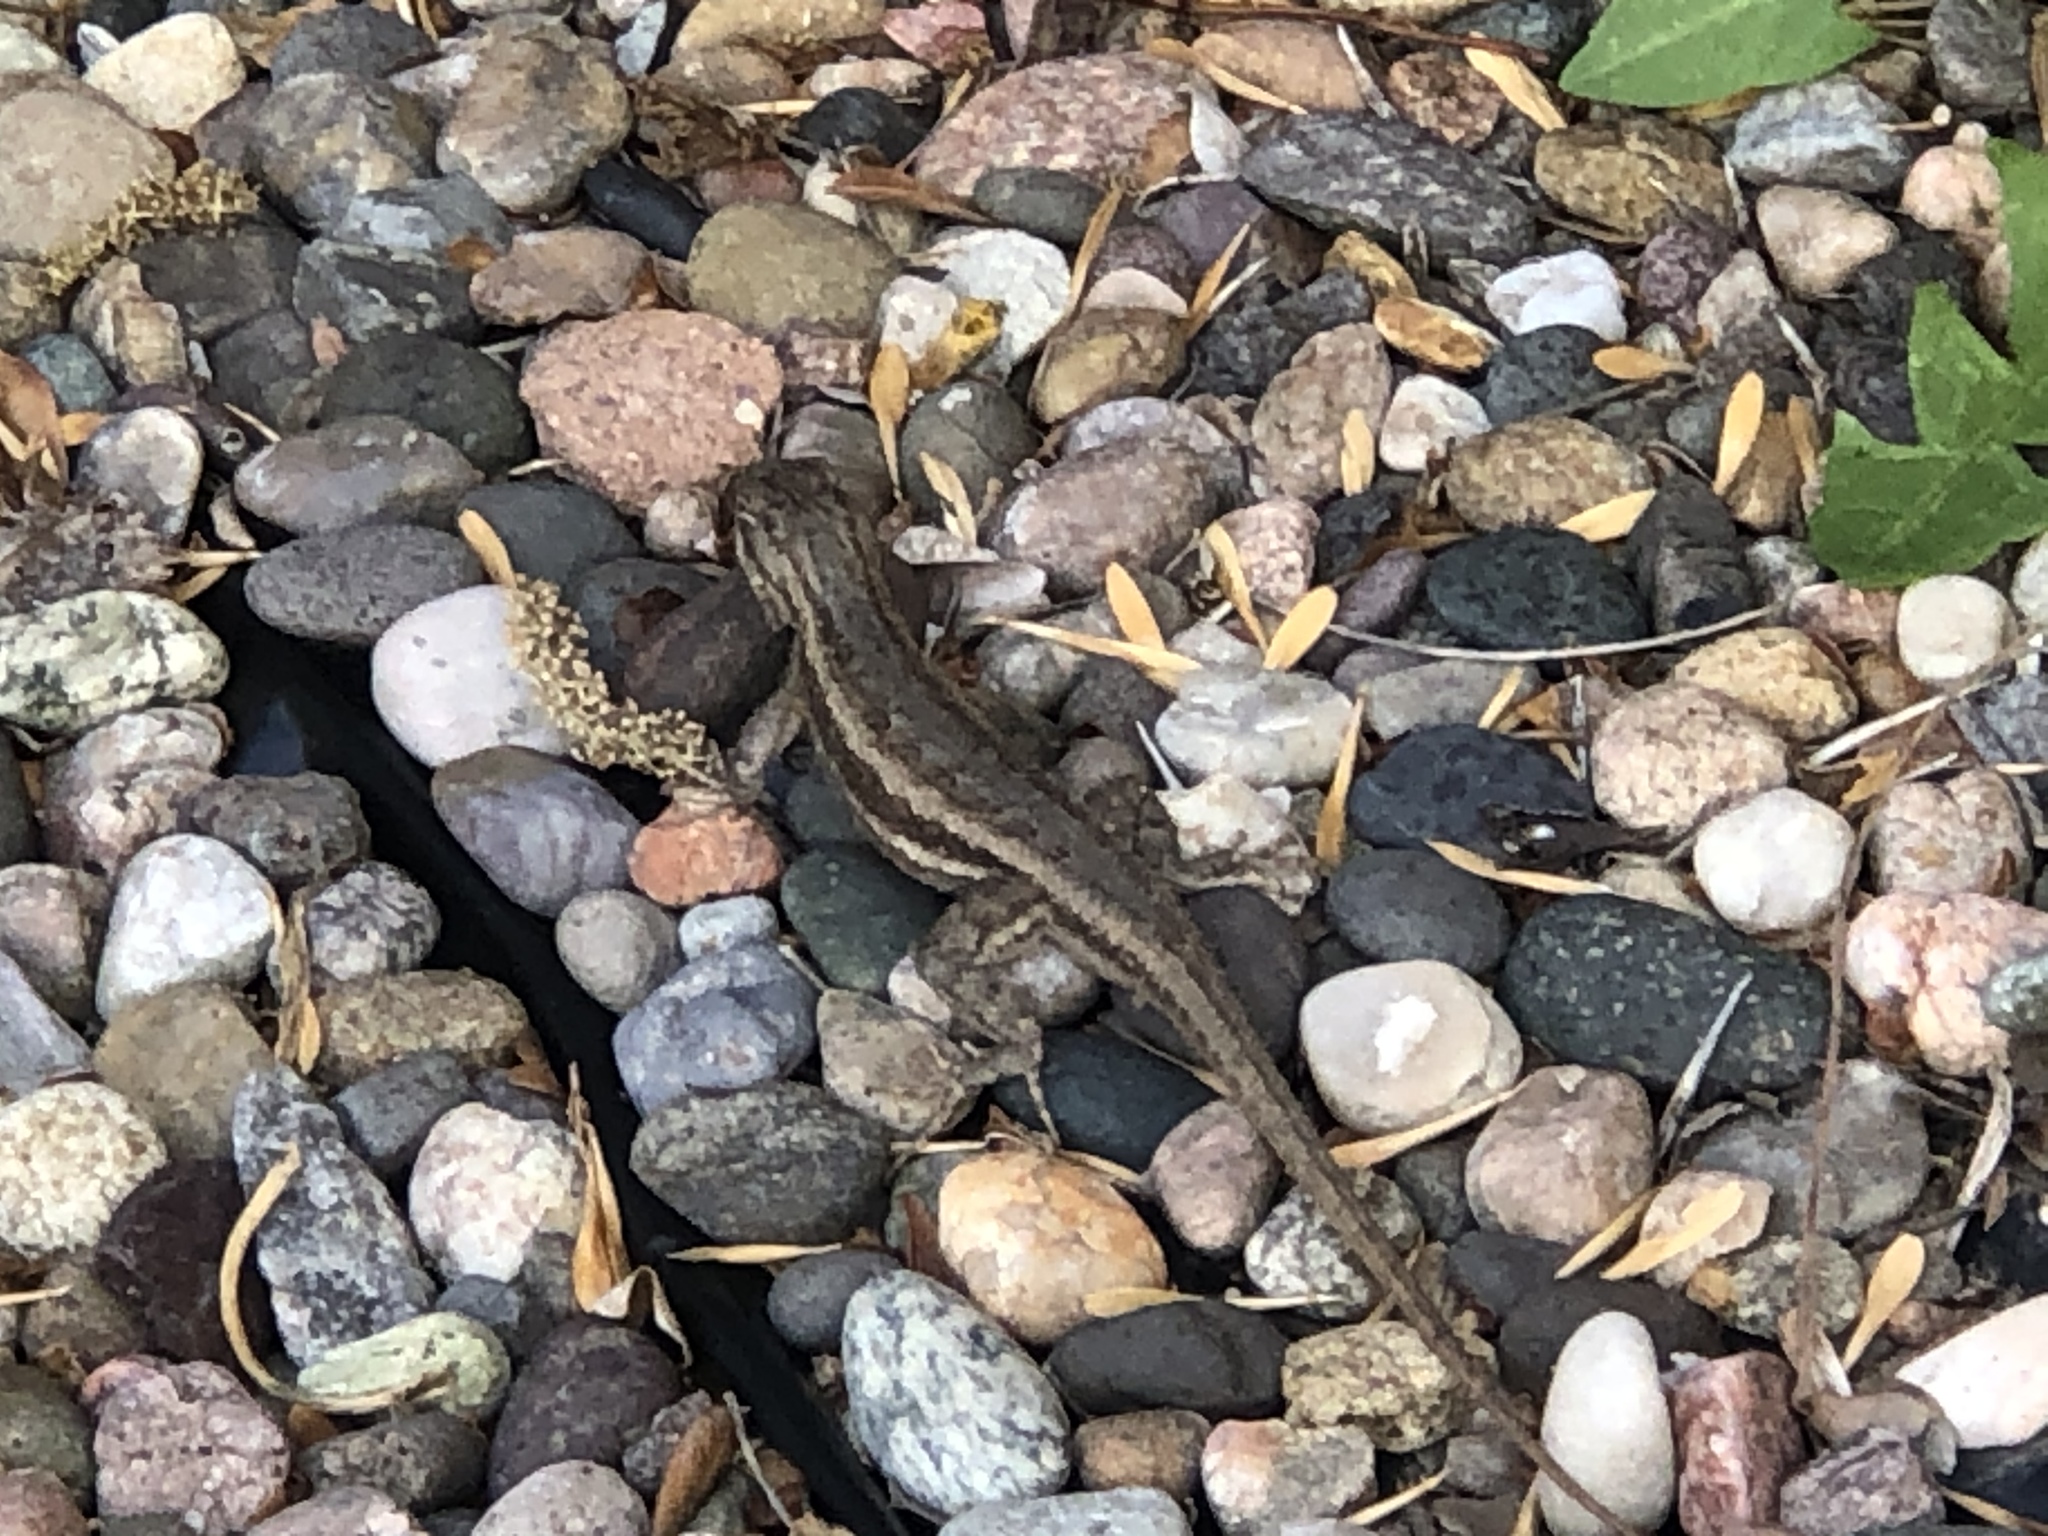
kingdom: Animalia
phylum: Chordata
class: Squamata
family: Phrynosomatidae
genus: Sceloporus
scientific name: Sceloporus cowlesi
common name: White sands prairie lizard
